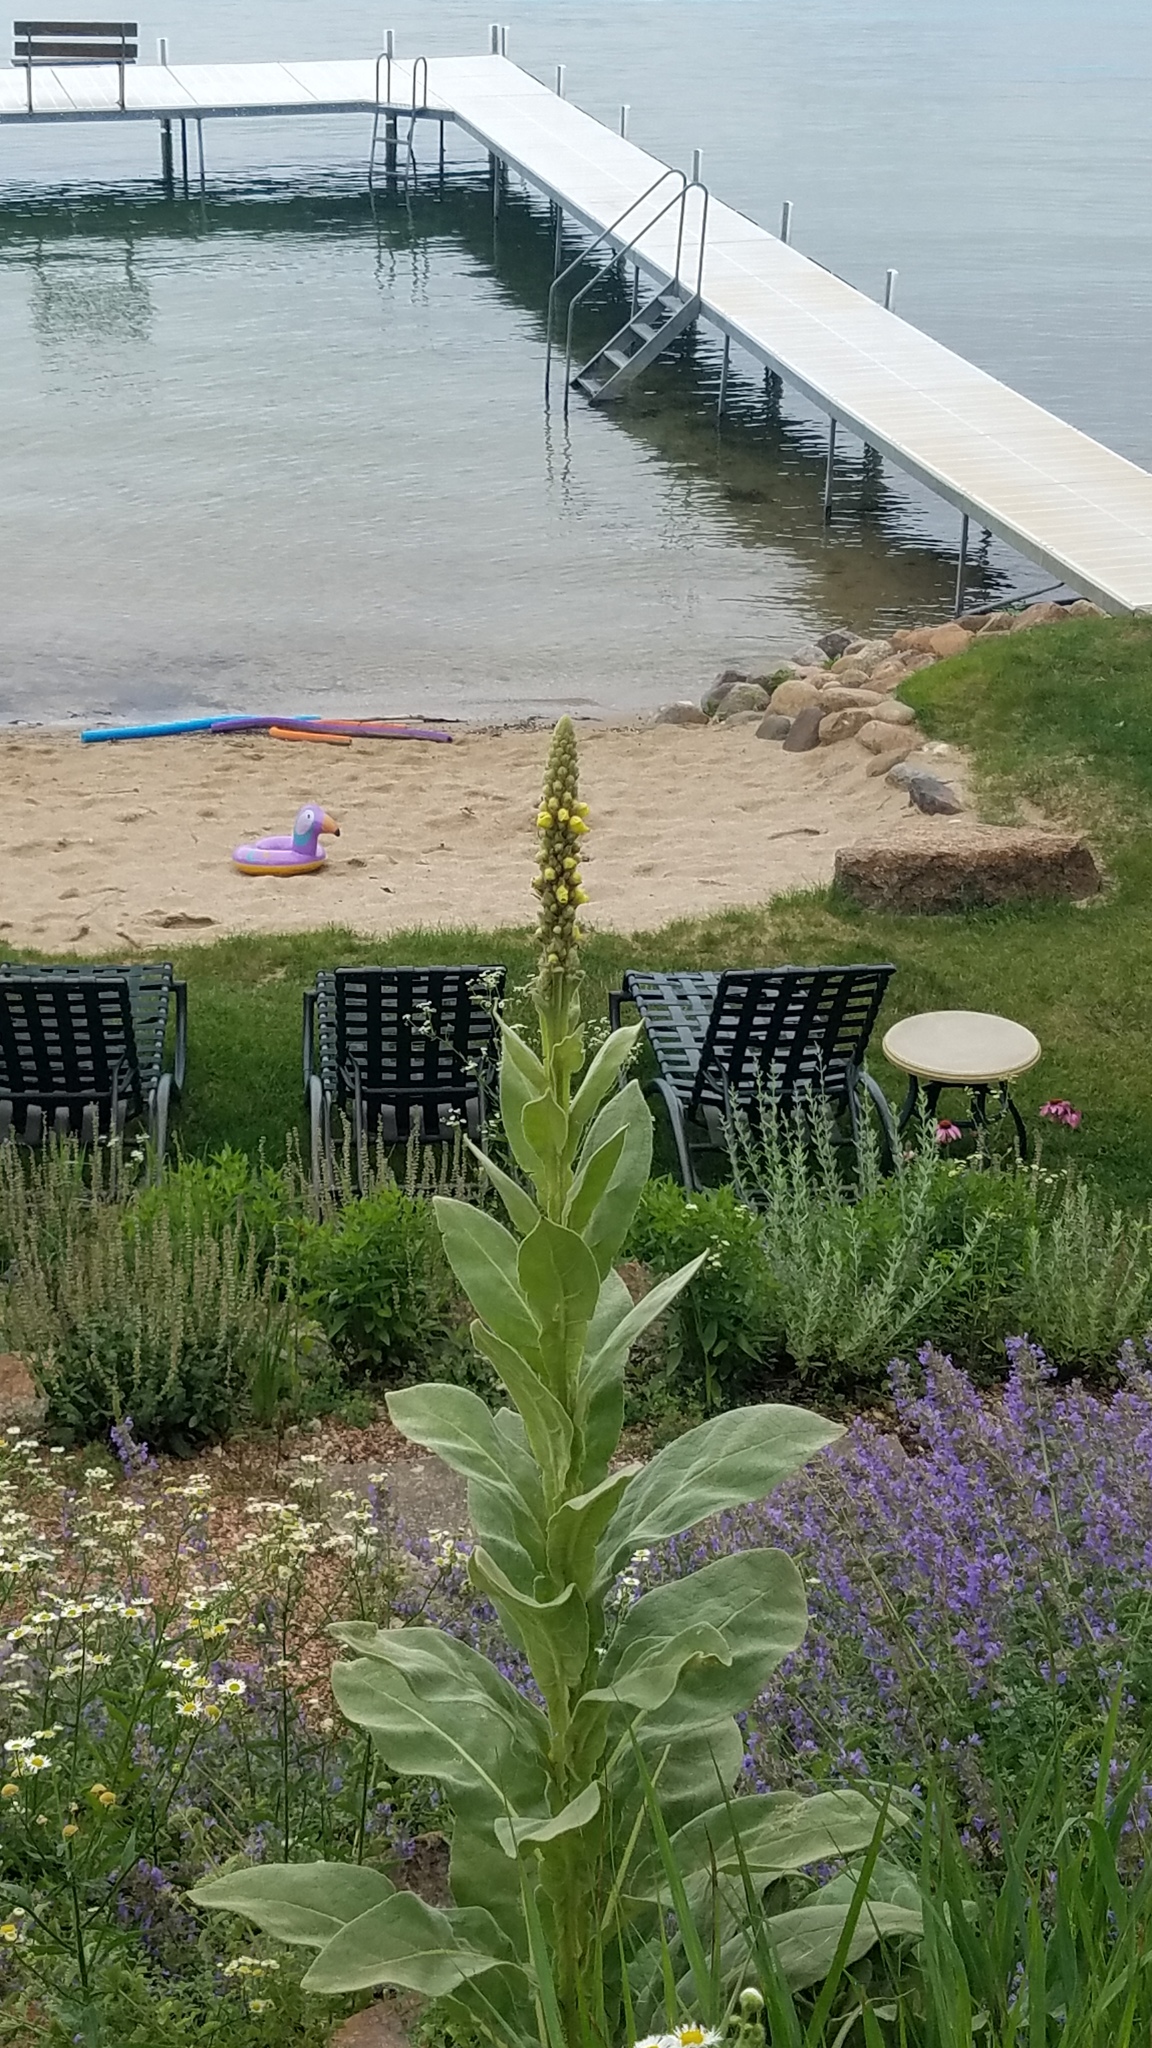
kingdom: Plantae
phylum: Tracheophyta
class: Magnoliopsida
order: Lamiales
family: Scrophulariaceae
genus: Verbascum
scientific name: Verbascum thapsus
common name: Common mullein
